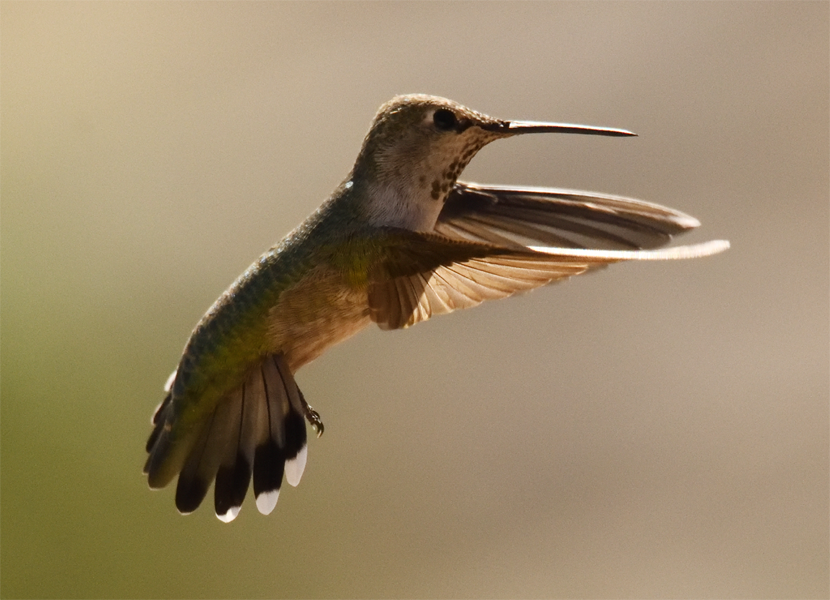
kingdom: Animalia
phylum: Chordata
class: Aves
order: Apodiformes
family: Trochilidae
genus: Calypte
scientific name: Calypte anna
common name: Anna's hummingbird
